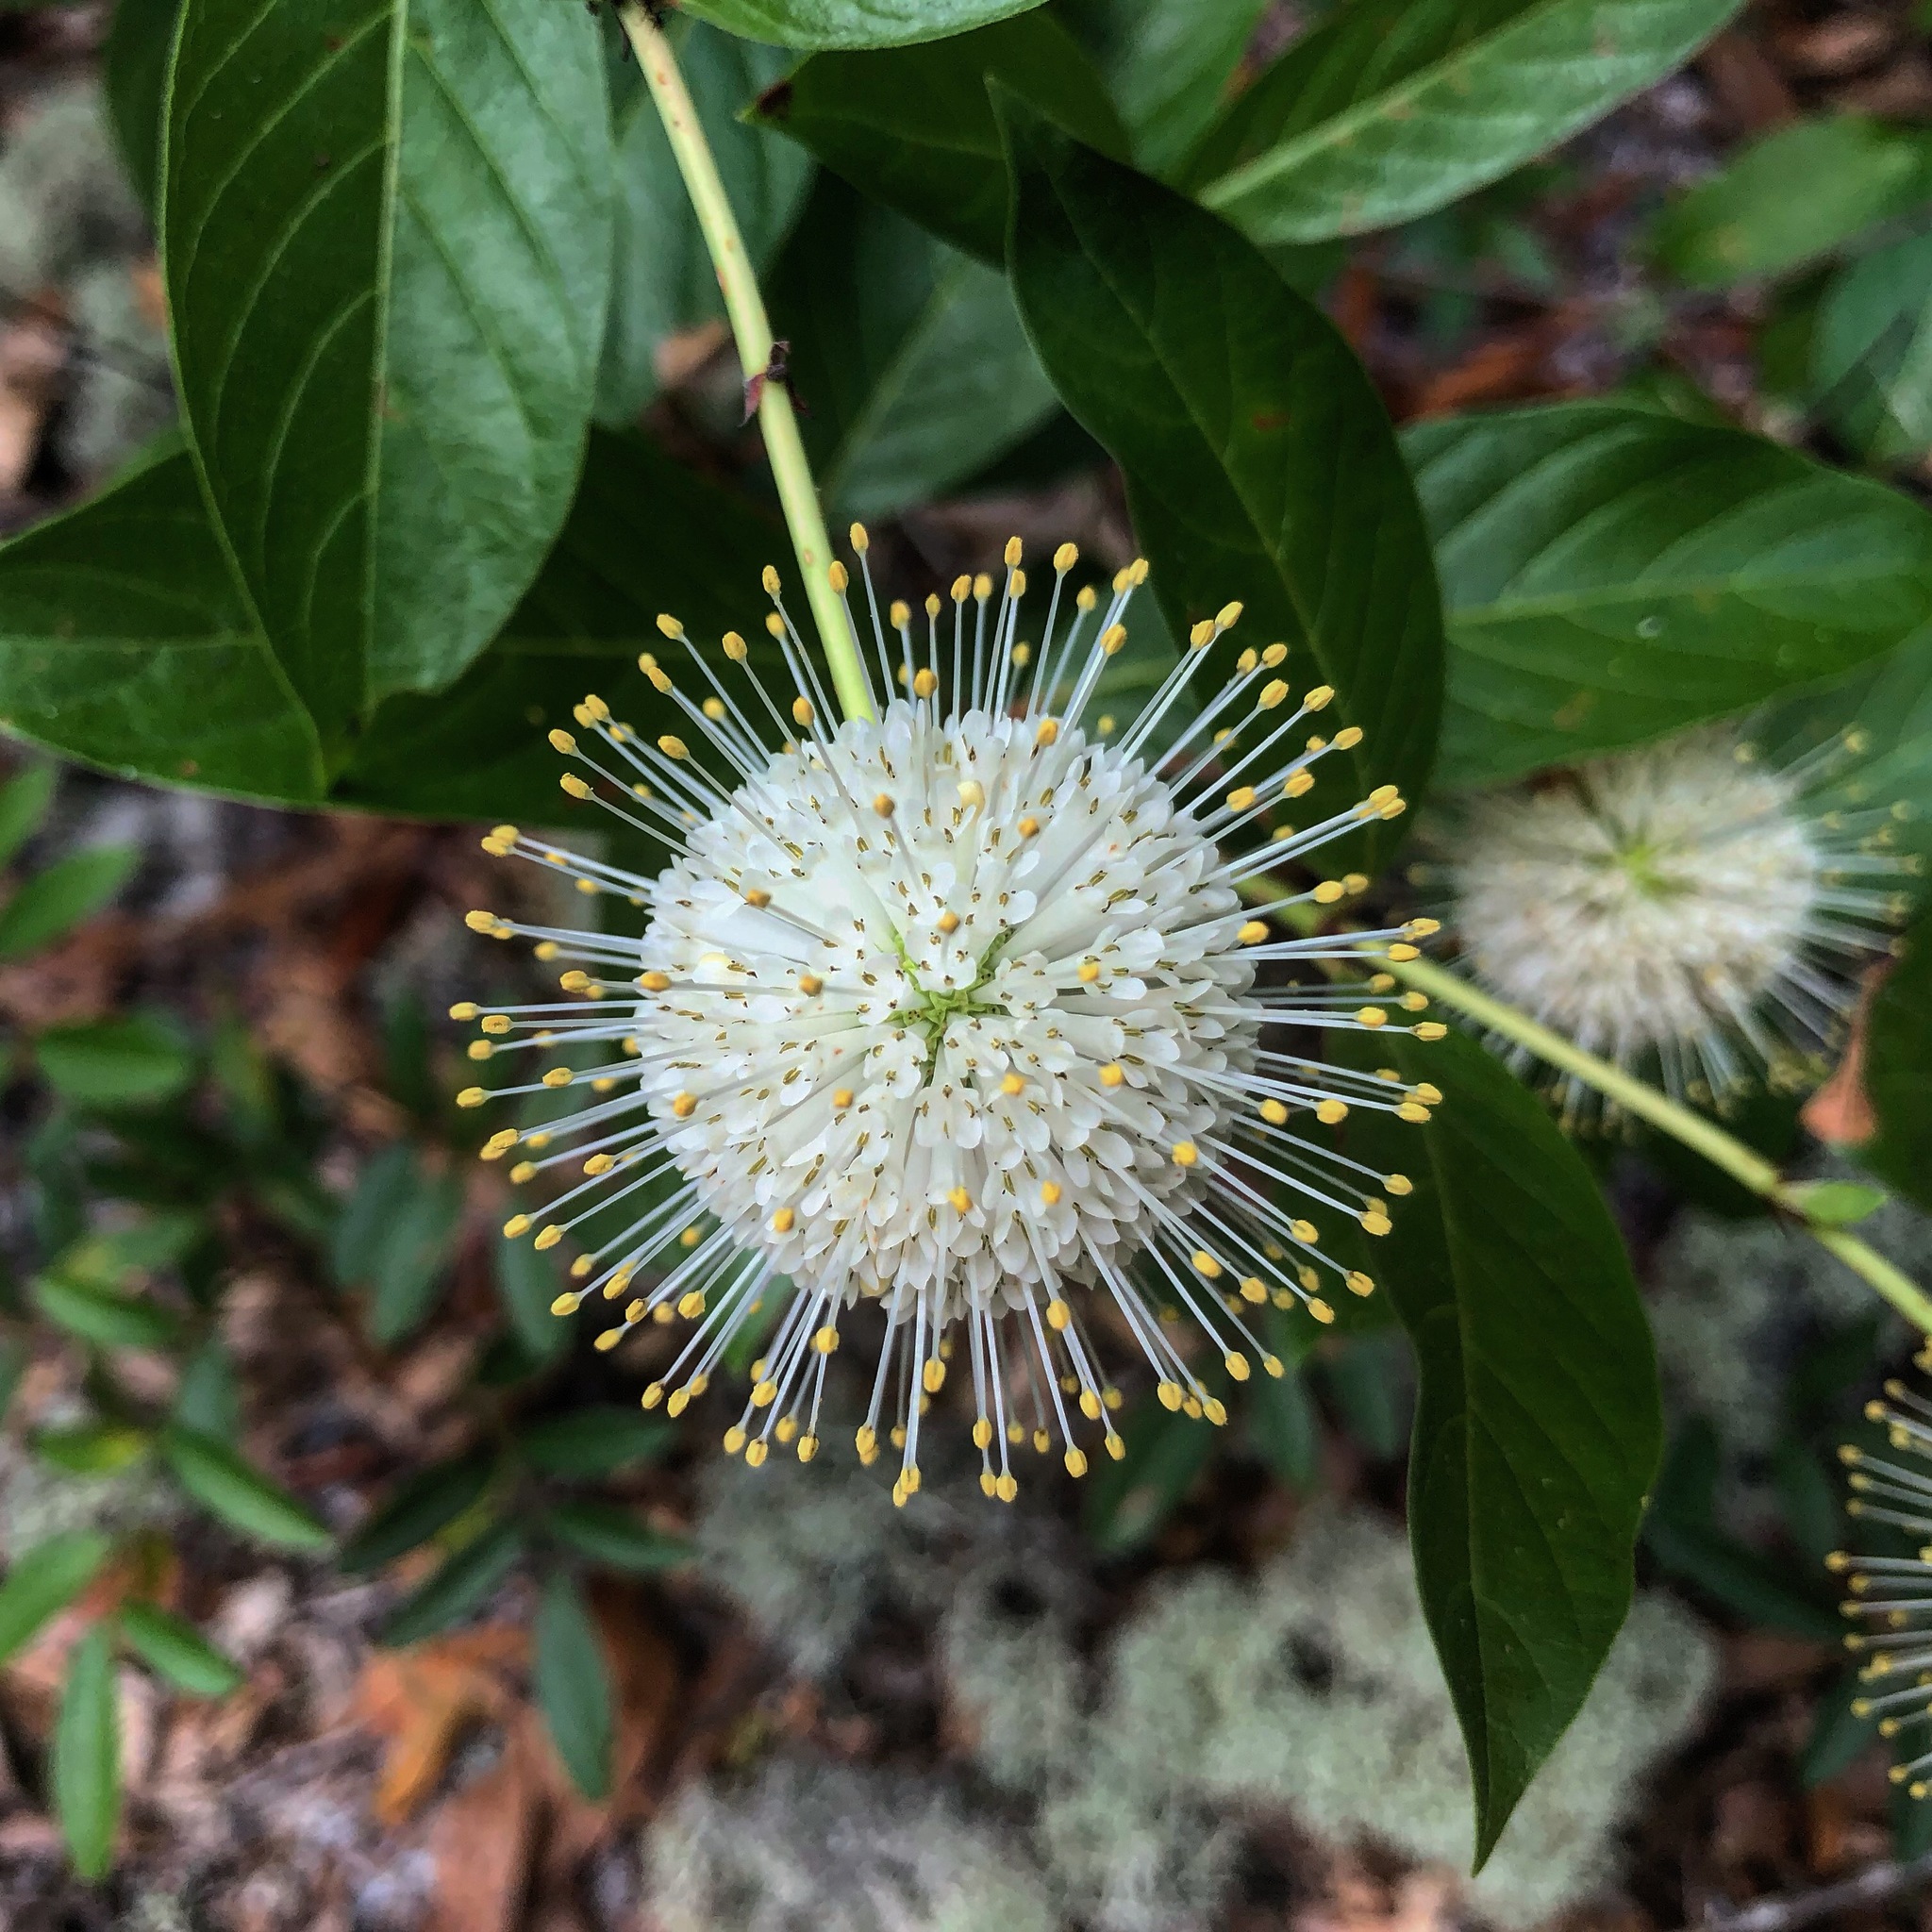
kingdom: Plantae
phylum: Tracheophyta
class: Magnoliopsida
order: Gentianales
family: Rubiaceae
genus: Cephalanthus
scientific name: Cephalanthus occidentalis
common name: Button-willow
